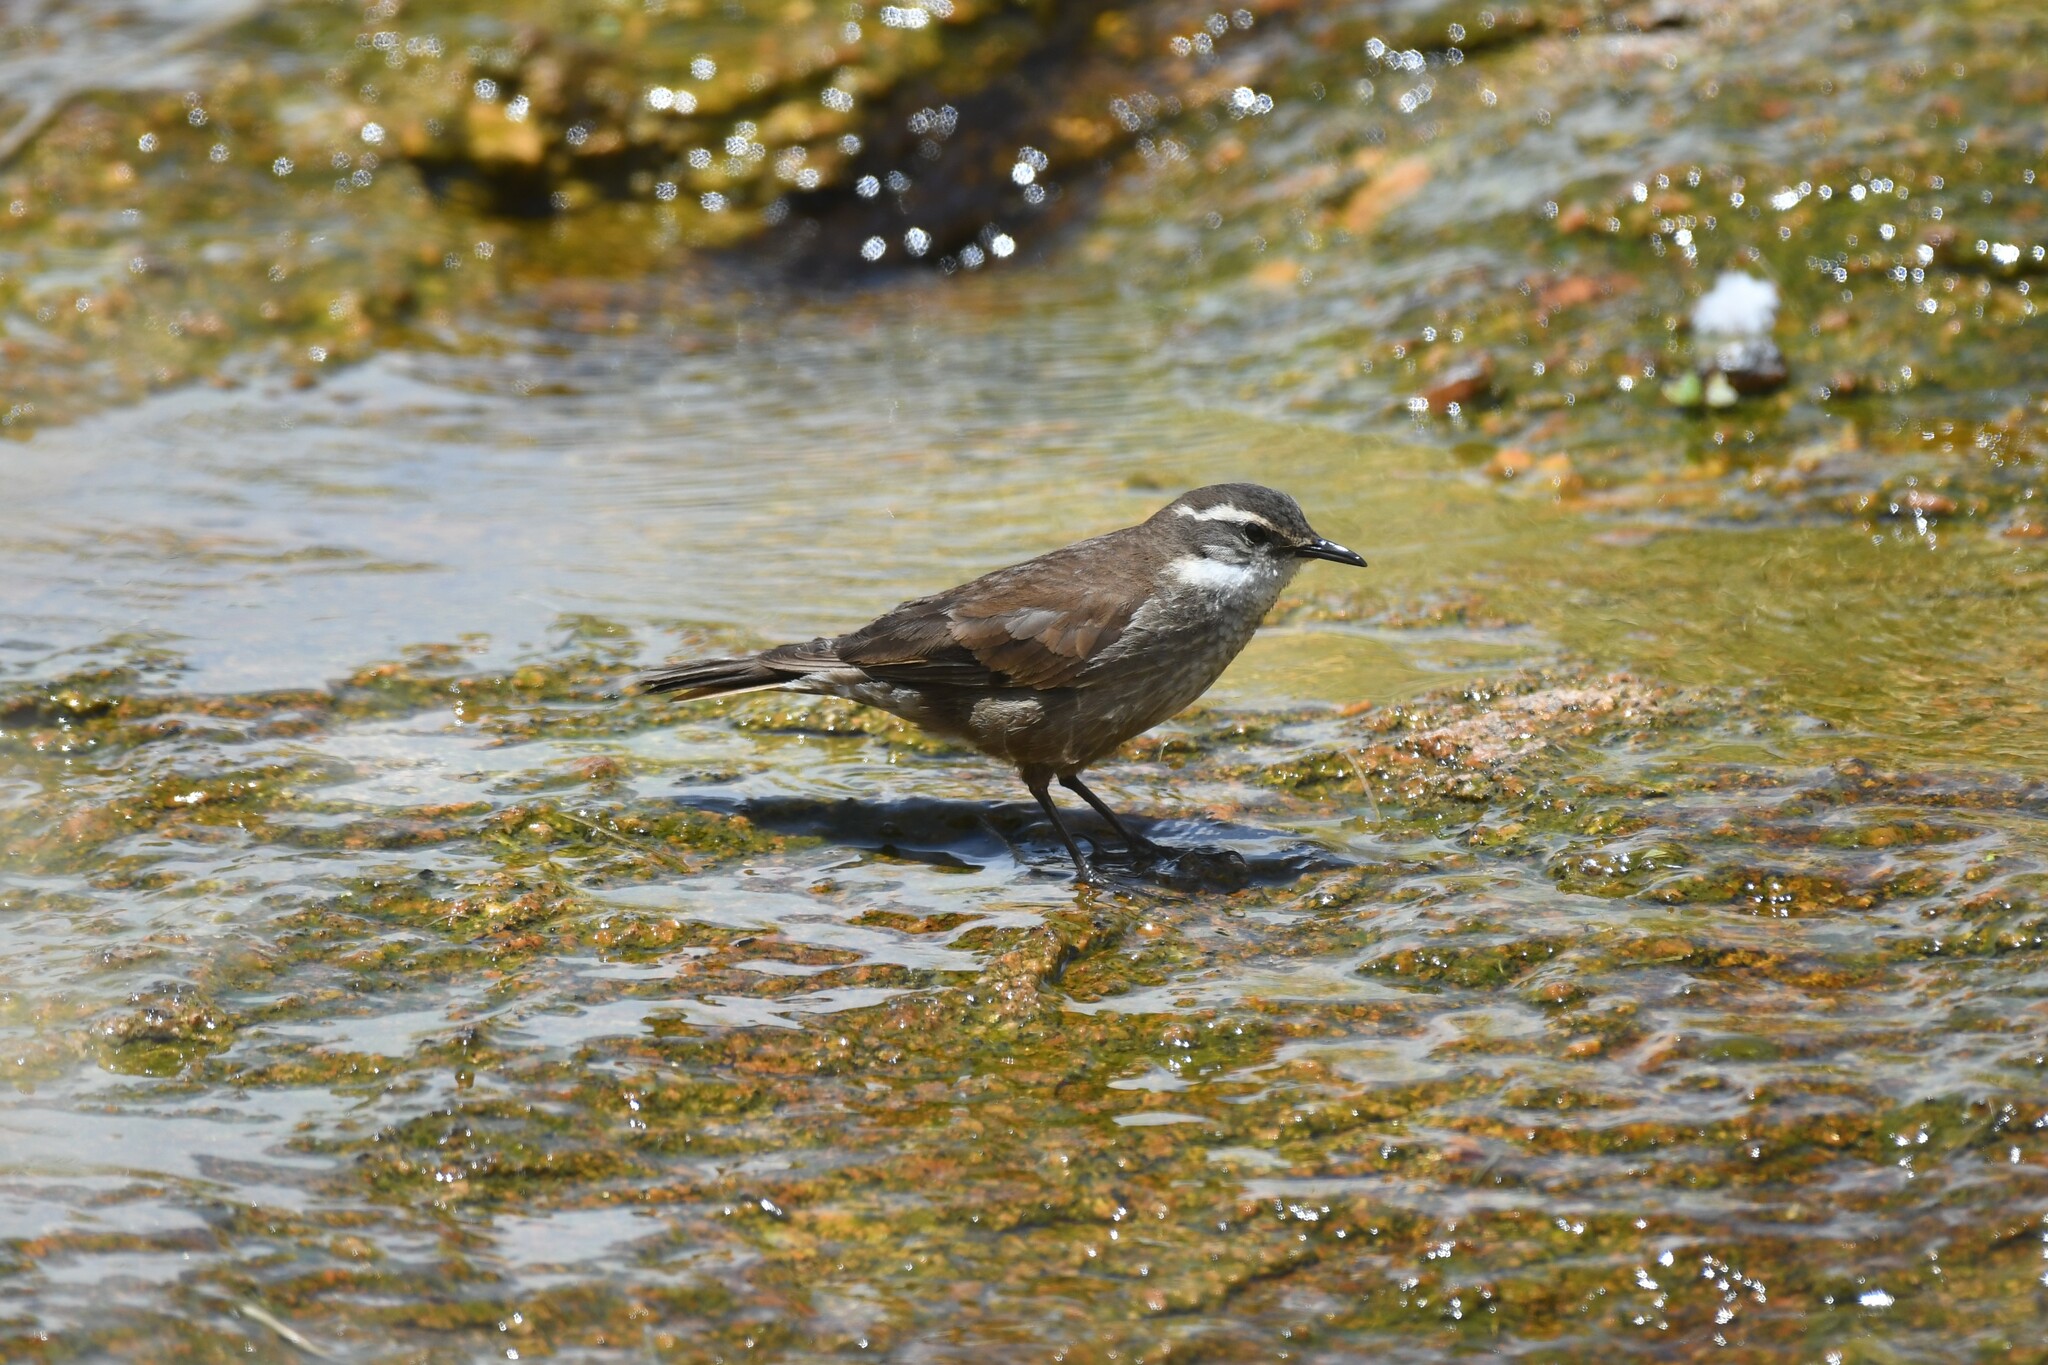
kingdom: Animalia
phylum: Chordata
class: Aves
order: Passeriformes
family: Furnariidae
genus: Cinclodes
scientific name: Cinclodes olrogi
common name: Olrog's cinclodes
